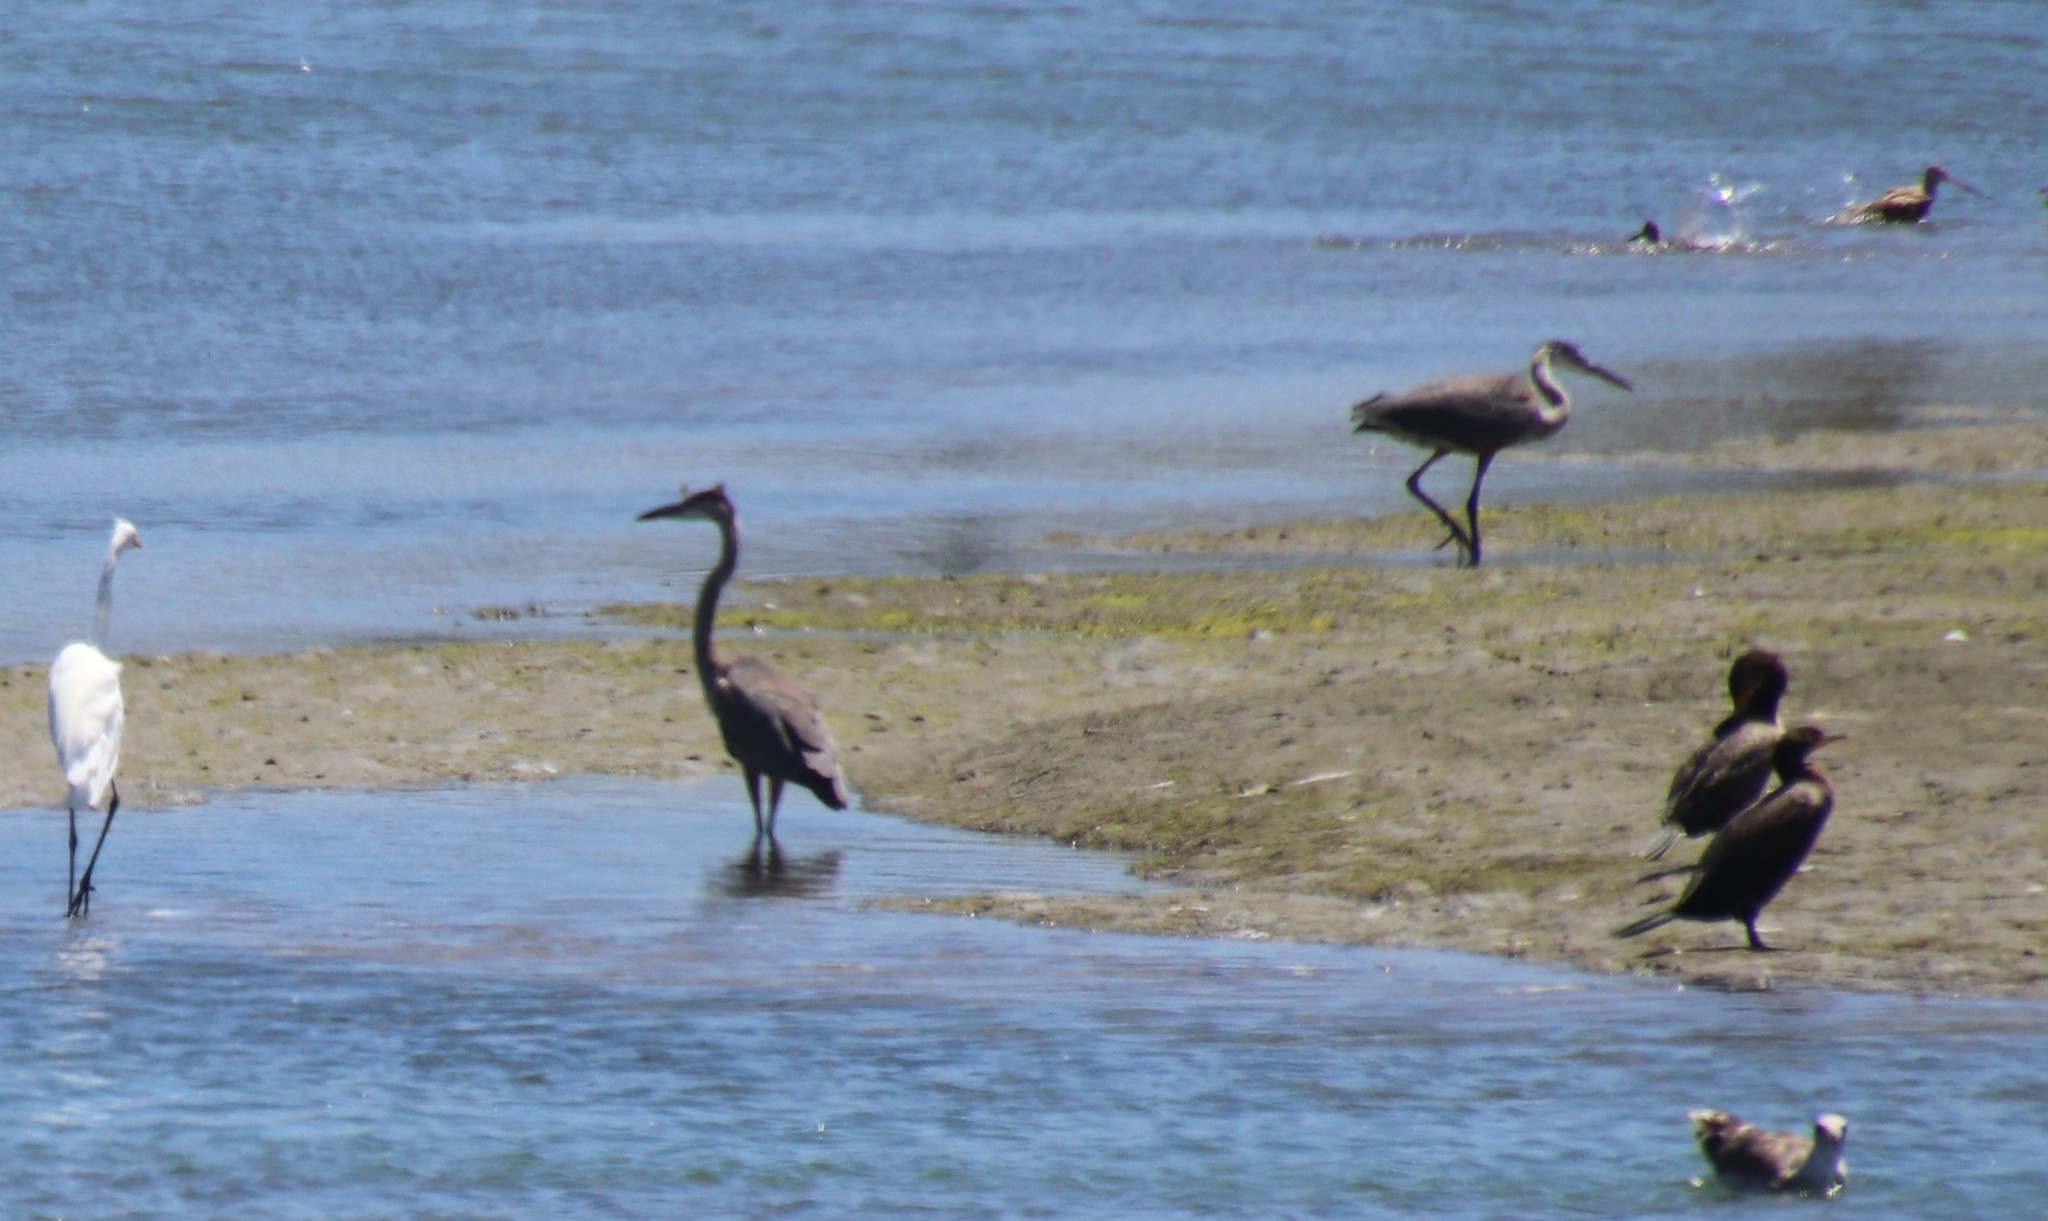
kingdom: Animalia
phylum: Chordata
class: Aves
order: Pelecaniformes
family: Ardeidae
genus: Ardea
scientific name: Ardea herodias
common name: Great blue heron
